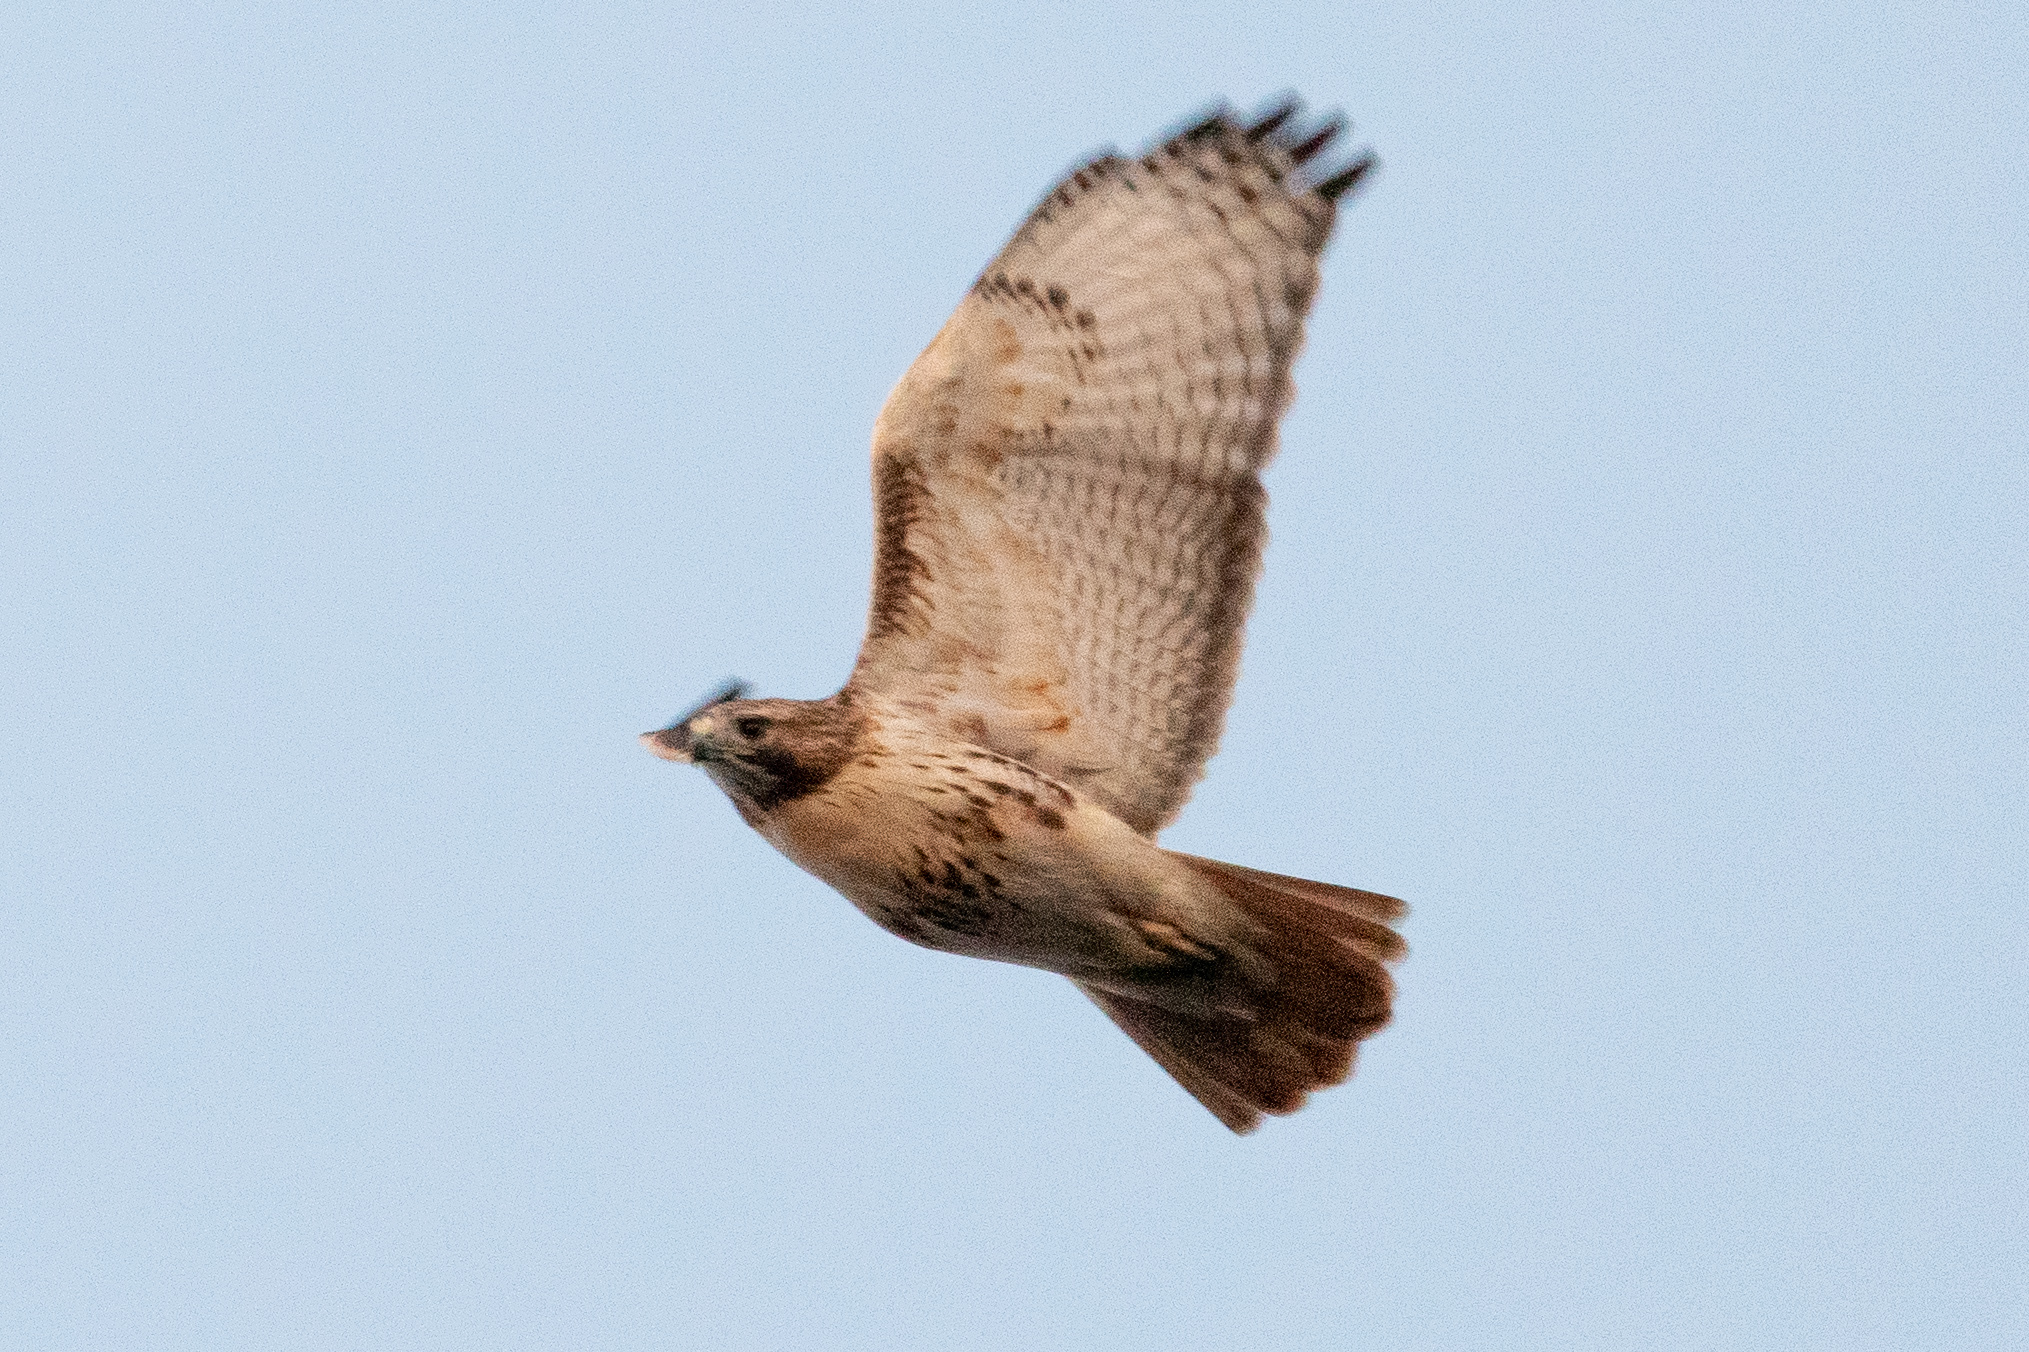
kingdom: Animalia
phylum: Chordata
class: Aves
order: Accipitriformes
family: Accipitridae
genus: Buteo
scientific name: Buteo jamaicensis
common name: Red-tailed hawk
